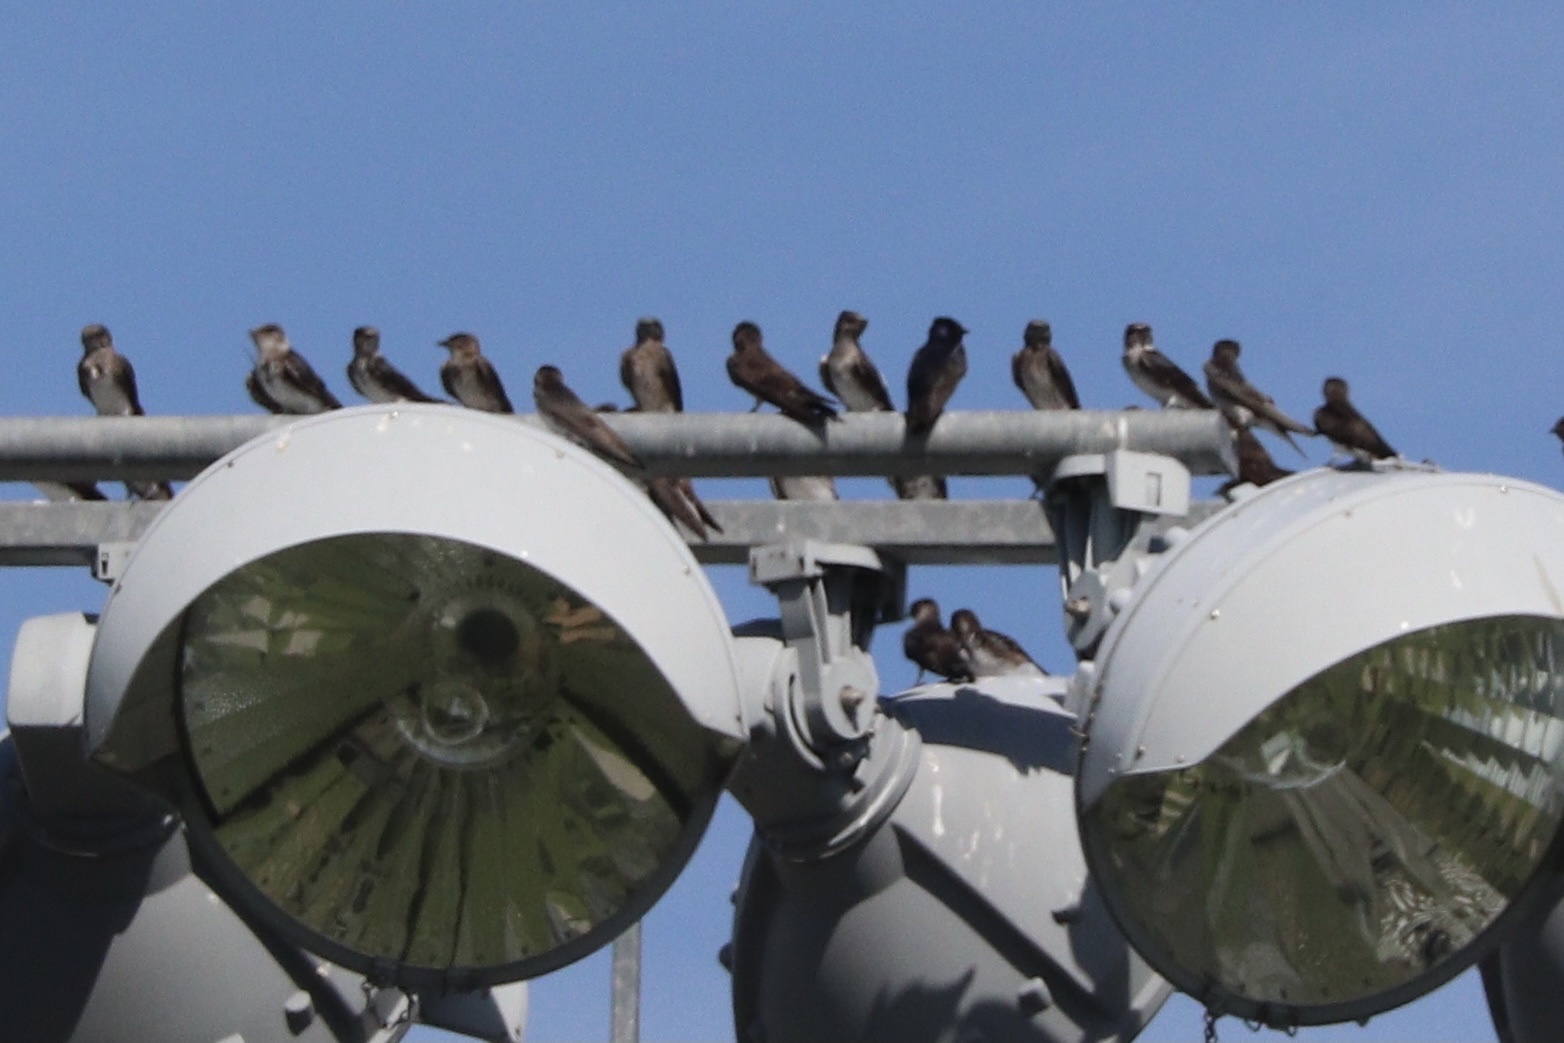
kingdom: Animalia
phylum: Chordata
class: Aves
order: Passeriformes
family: Hirundinidae
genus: Progne
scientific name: Progne subis
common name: Purple martin
